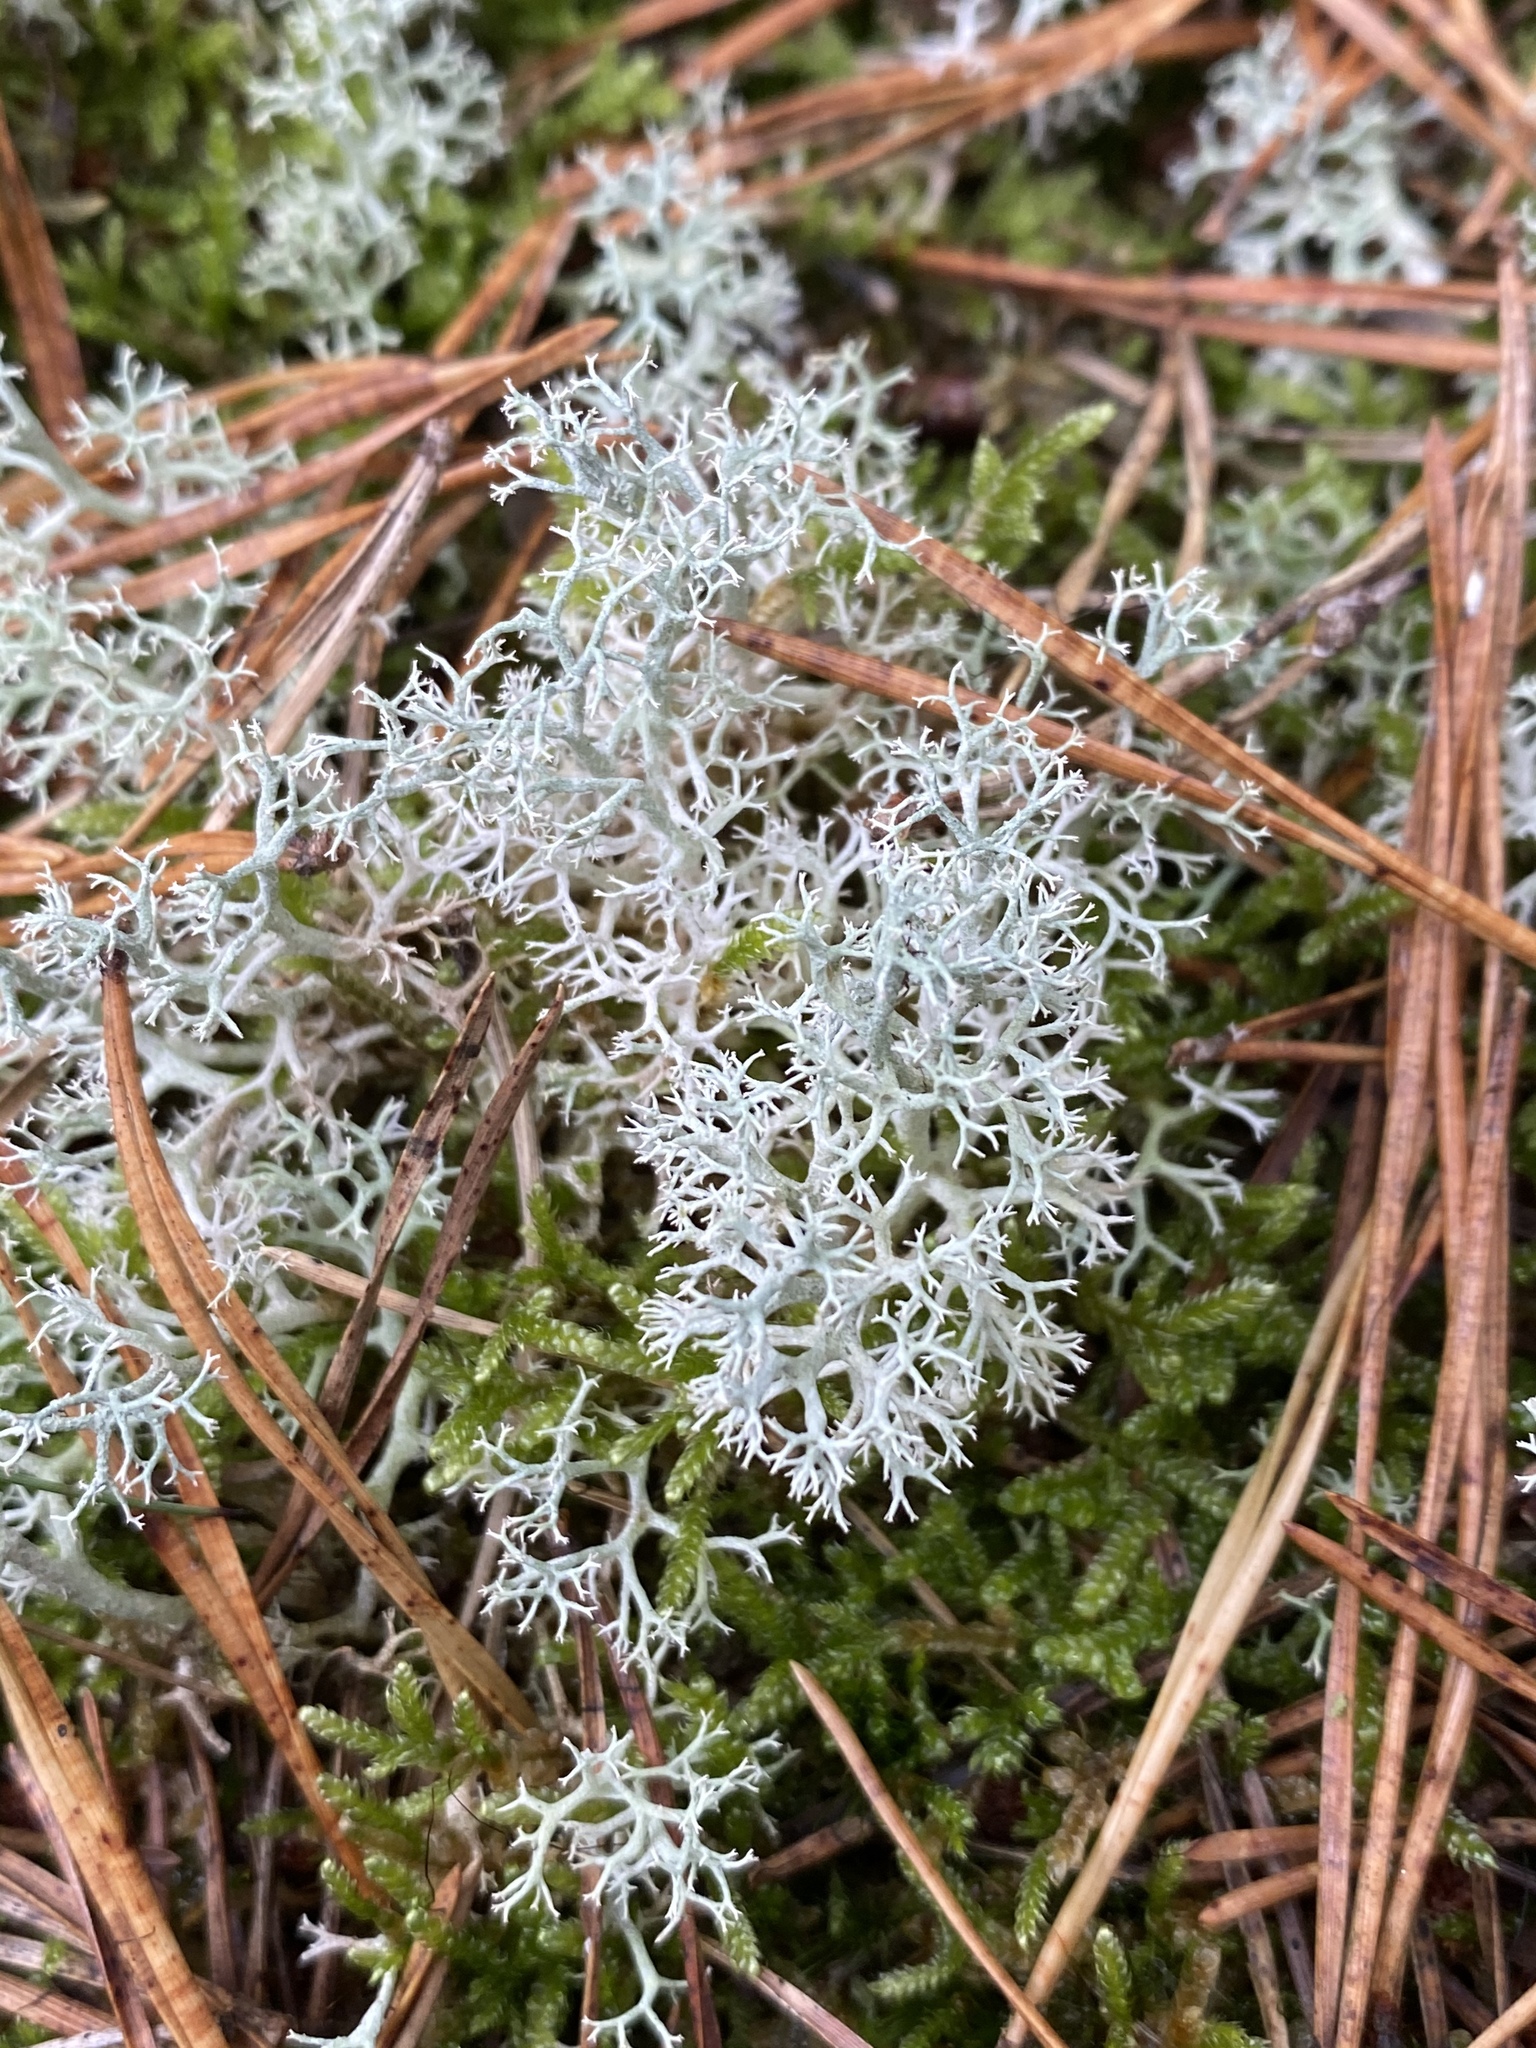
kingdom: Fungi
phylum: Ascomycota
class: Lecanoromycetes
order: Lecanorales
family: Cladoniaceae
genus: Cladonia
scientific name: Cladonia portentosa
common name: Reindeer lichen
